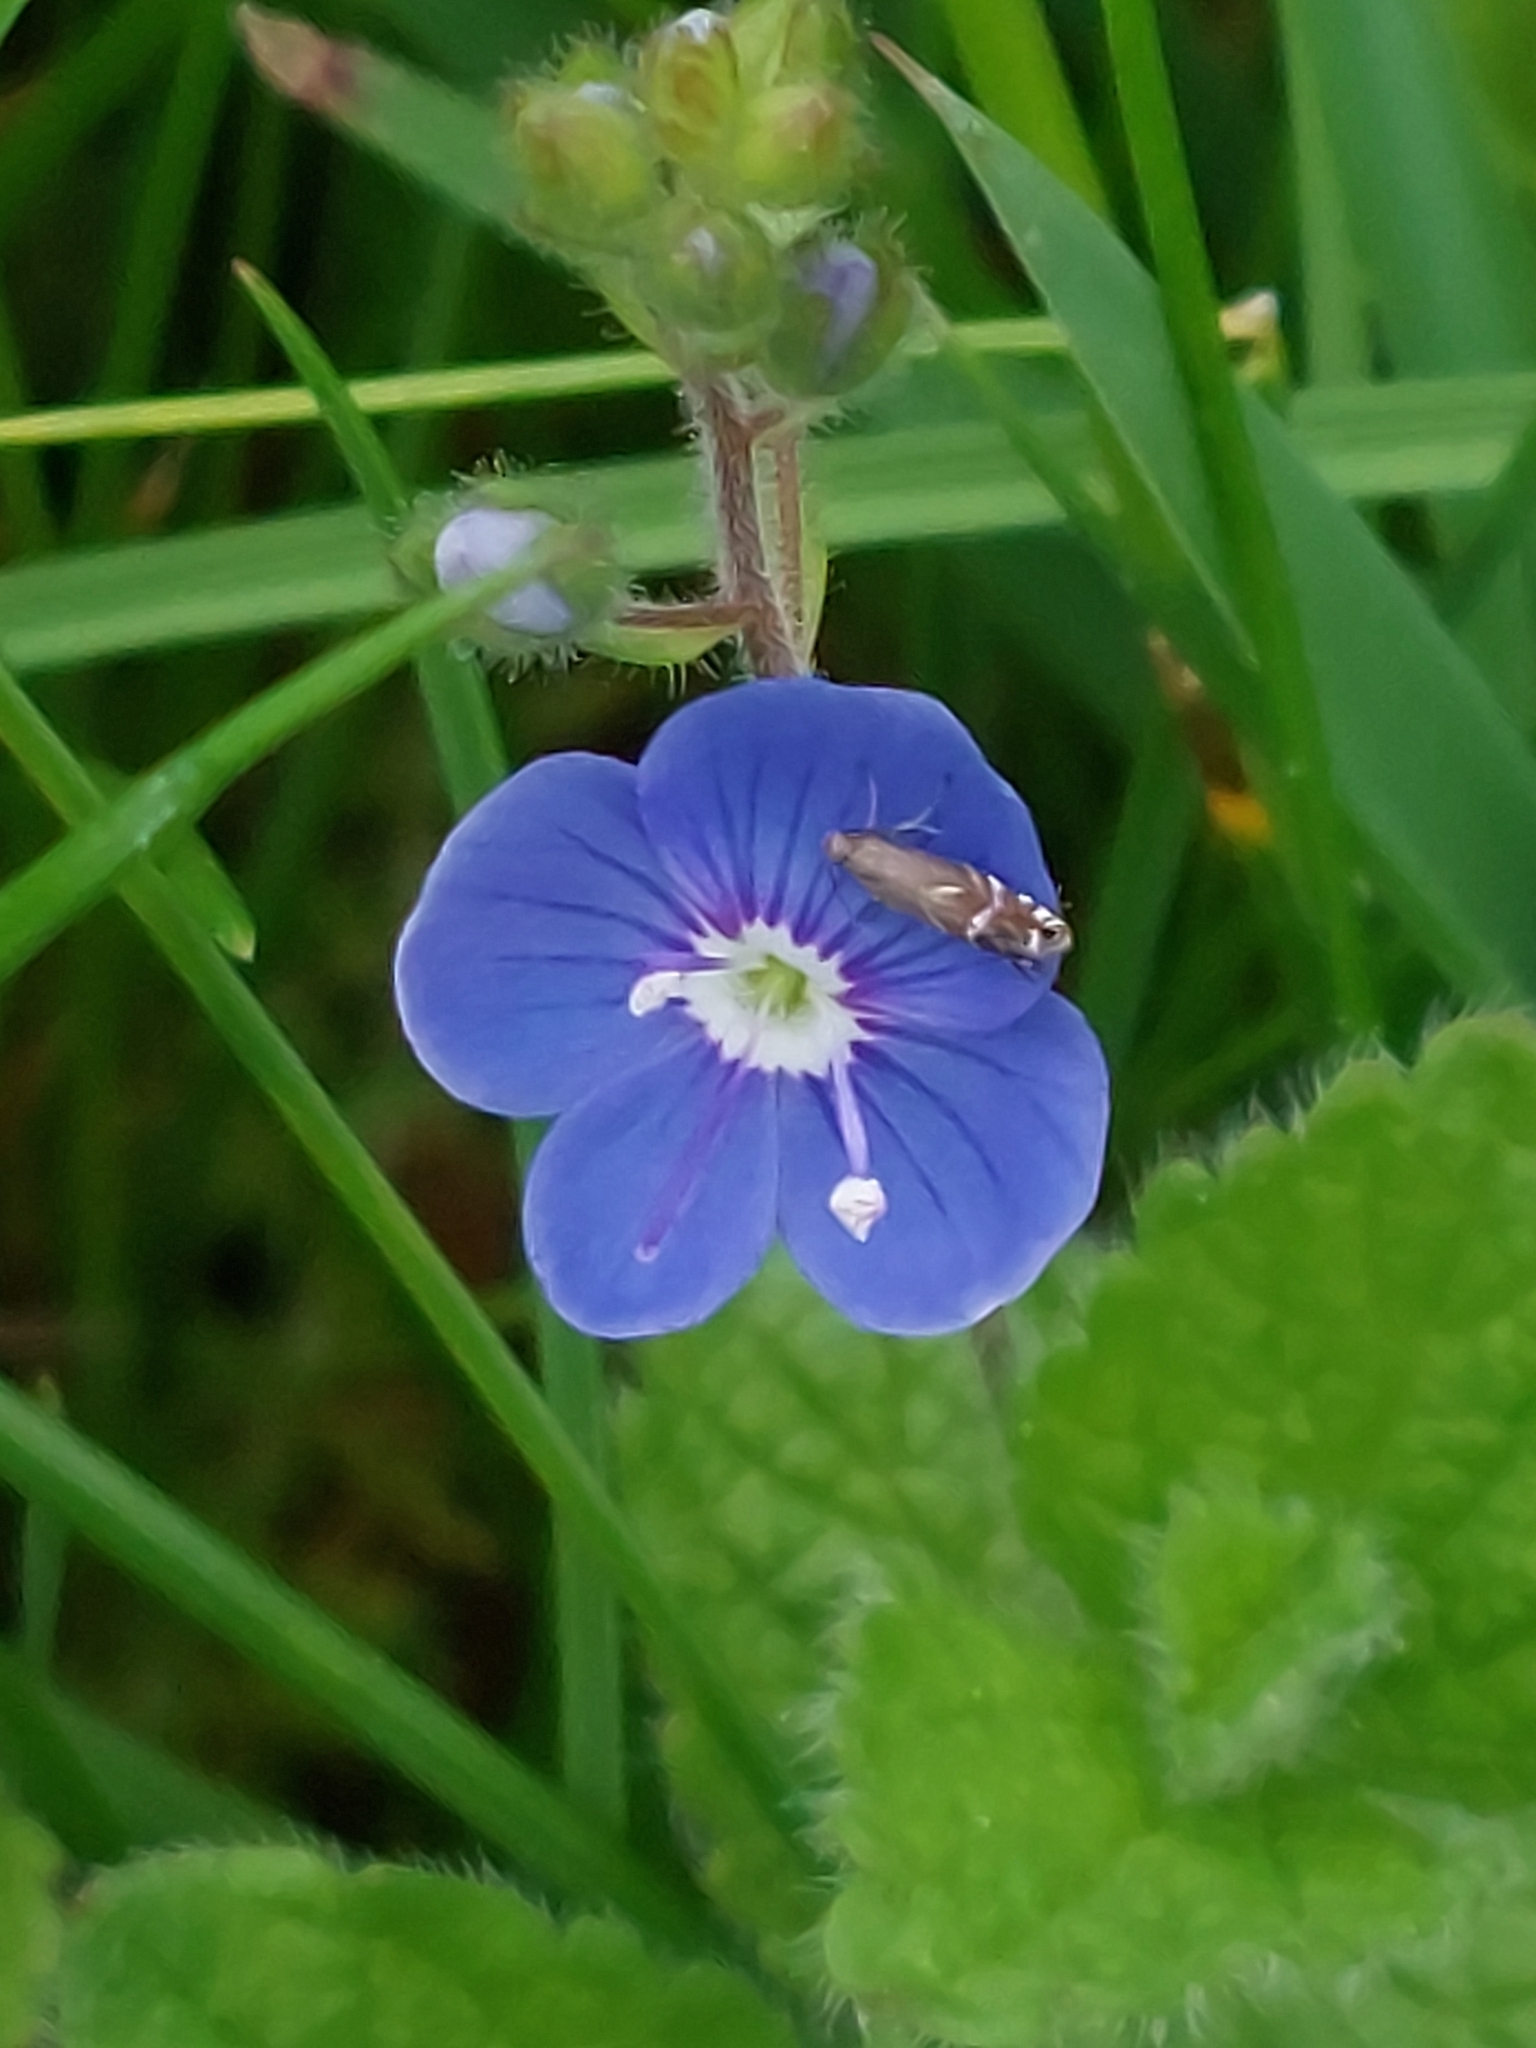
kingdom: Plantae
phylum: Tracheophyta
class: Magnoliopsida
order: Lamiales
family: Plantaginaceae
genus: Veronica
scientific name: Veronica chamaedrys
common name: Germander speedwell
